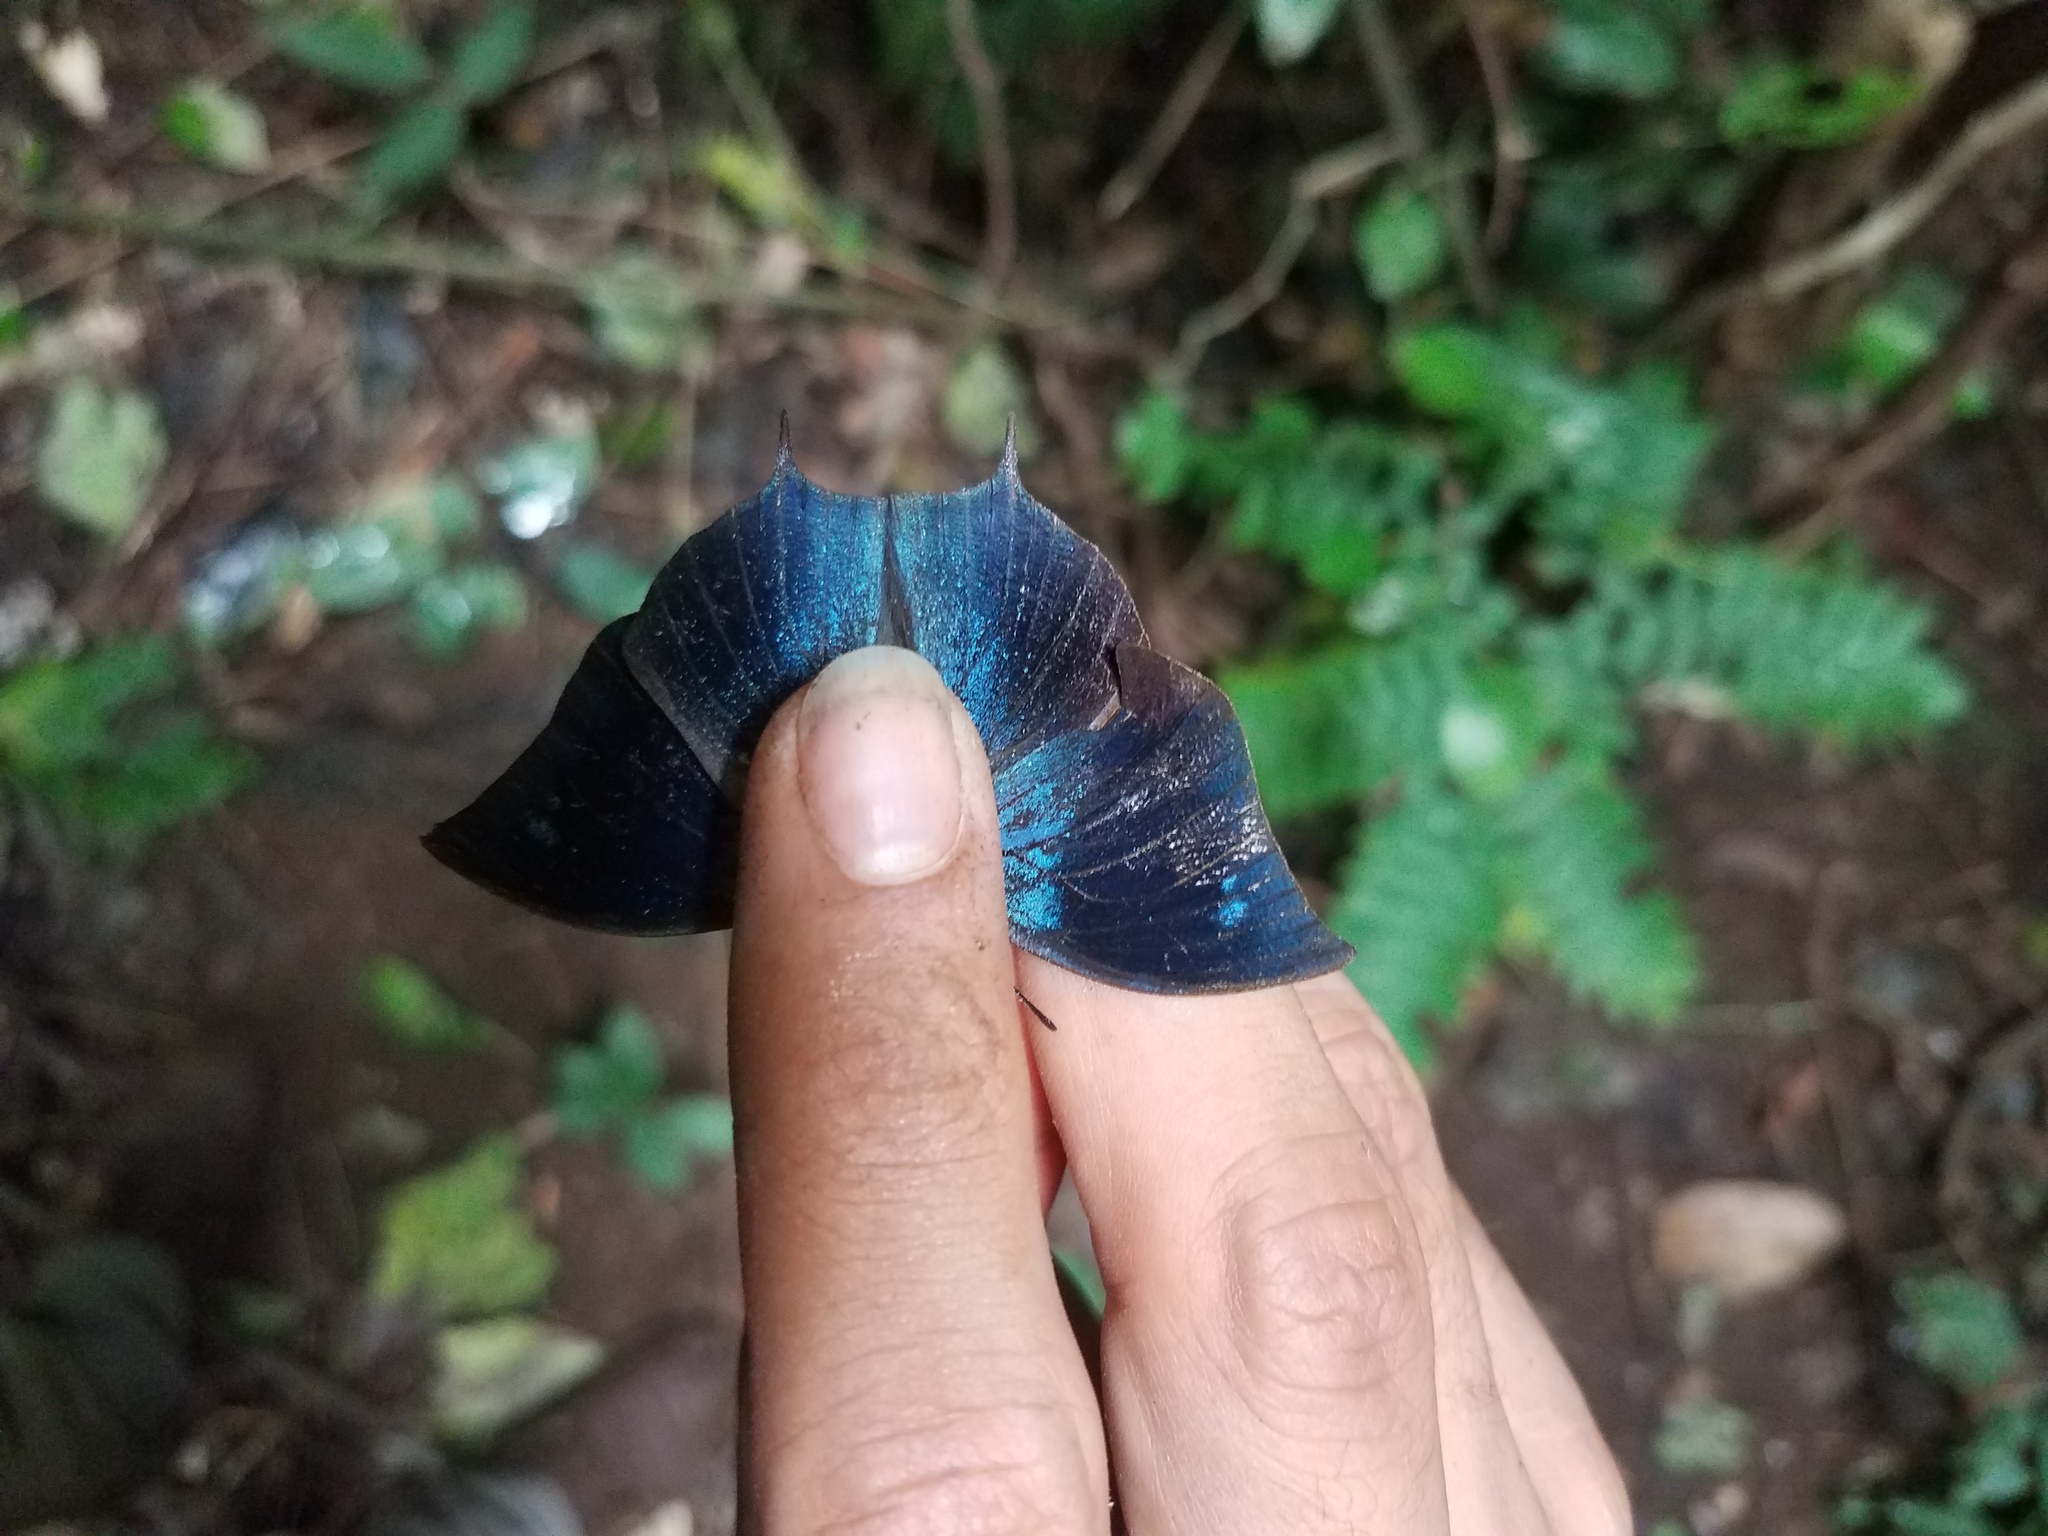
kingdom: Animalia
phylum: Arthropoda
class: Insecta
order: Lepidoptera
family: Nymphalidae
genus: Memphis
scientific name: Memphis moruus
